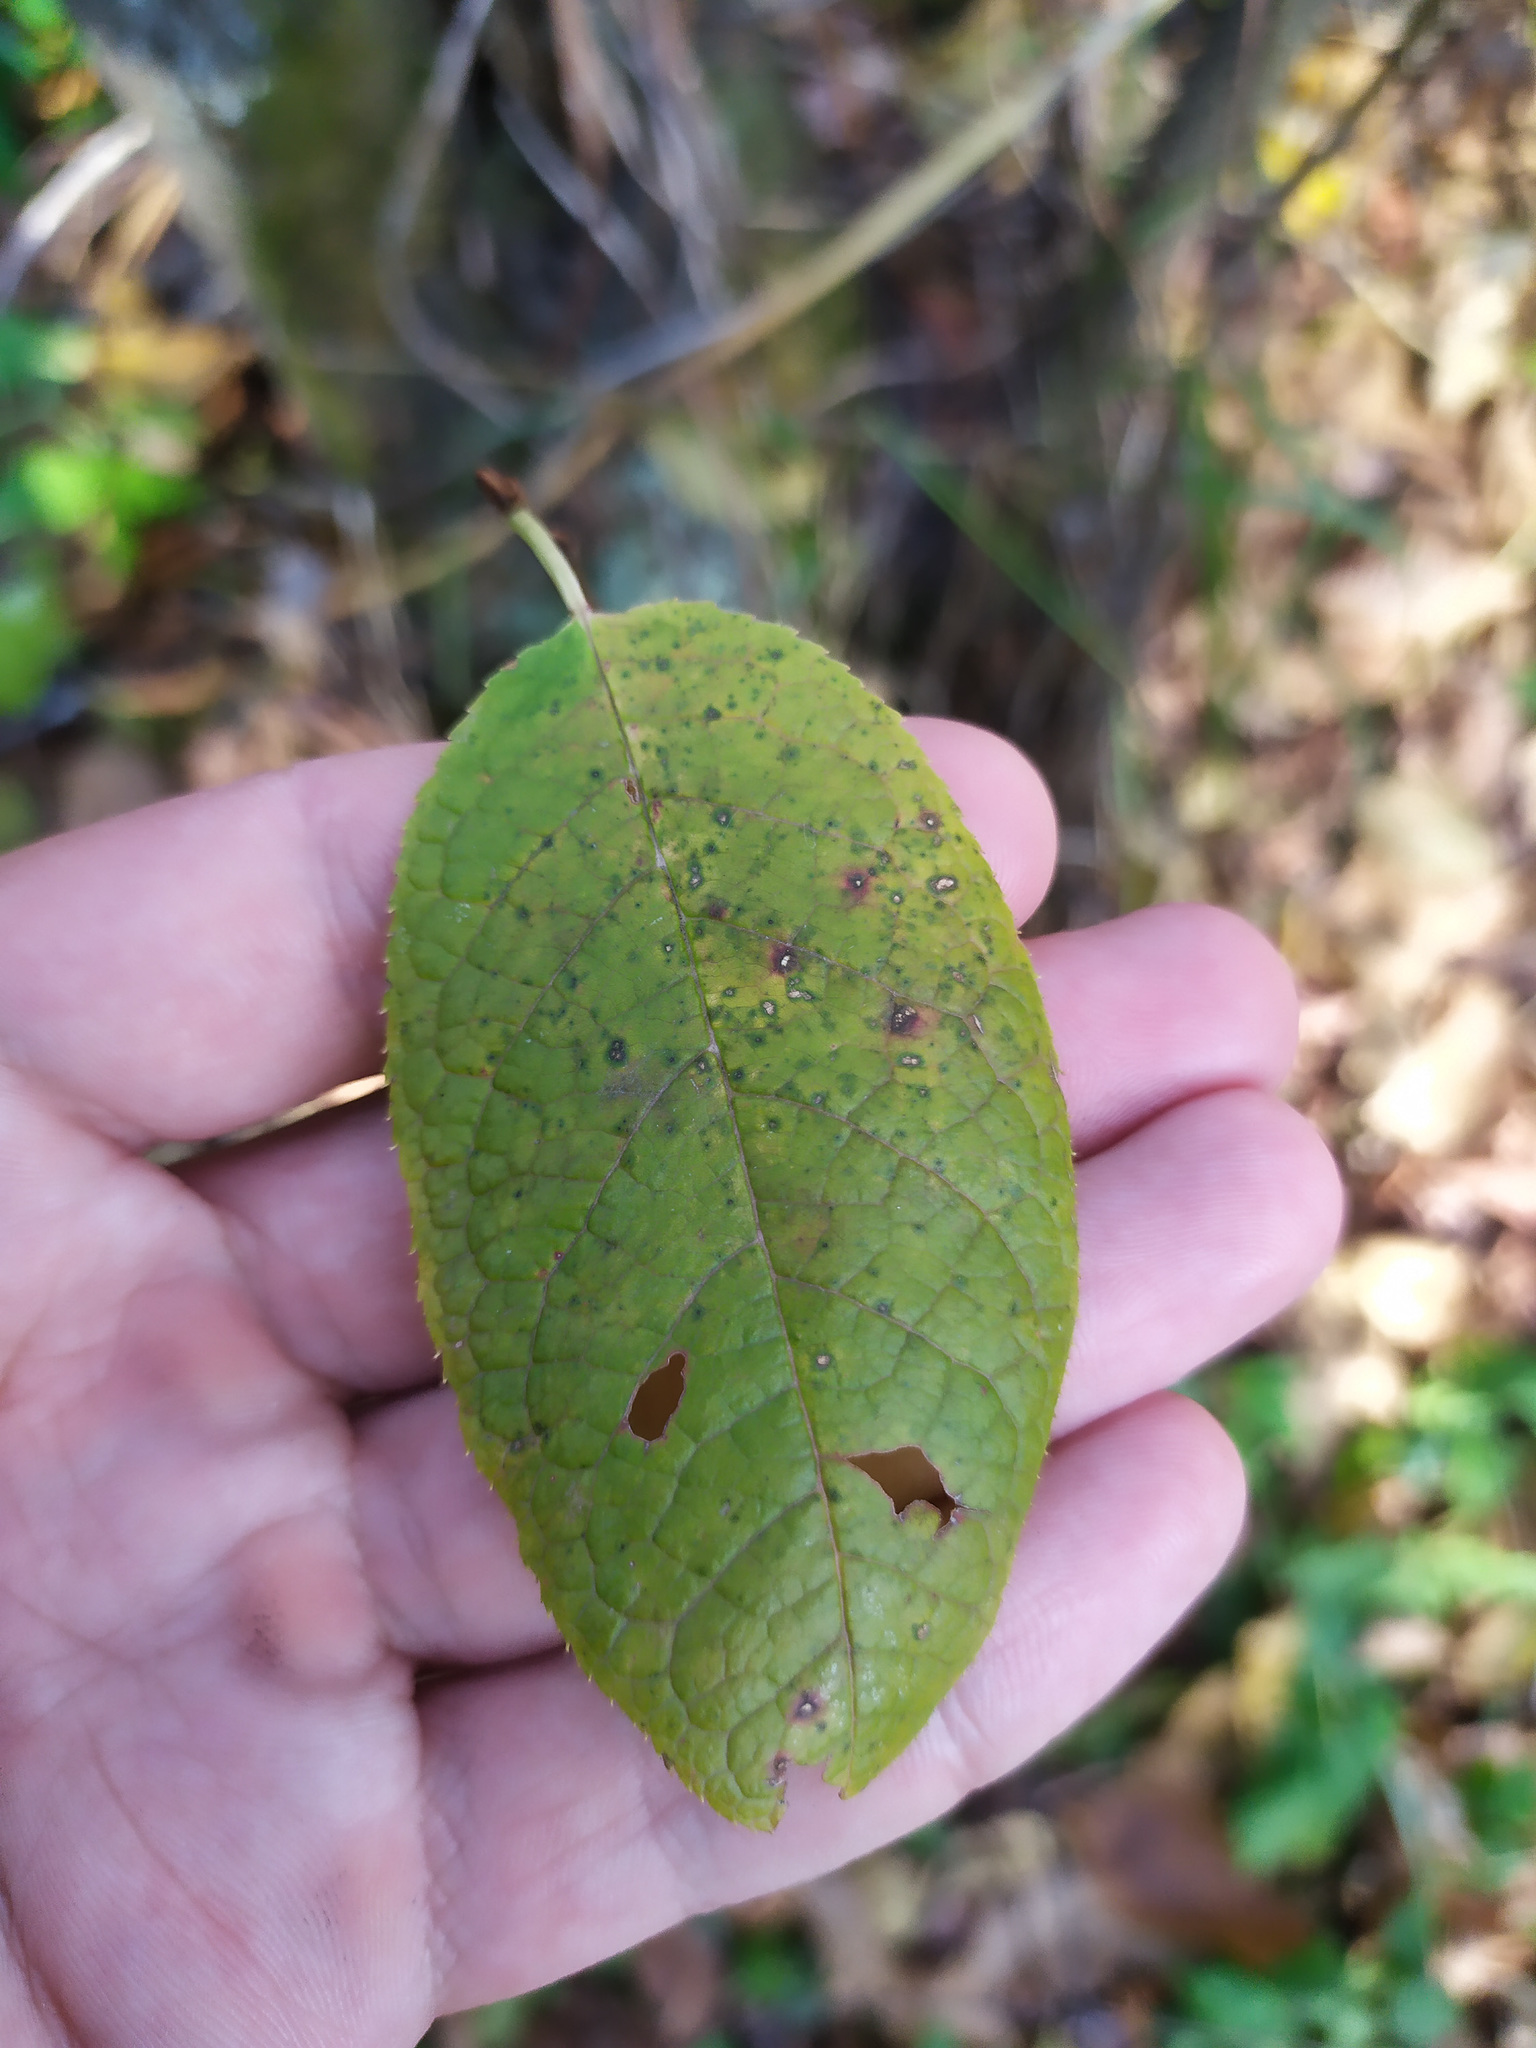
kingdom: Plantae
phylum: Tracheophyta
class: Magnoliopsida
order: Rosales
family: Rosaceae
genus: Prunus
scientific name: Prunus padus
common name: Bird cherry
